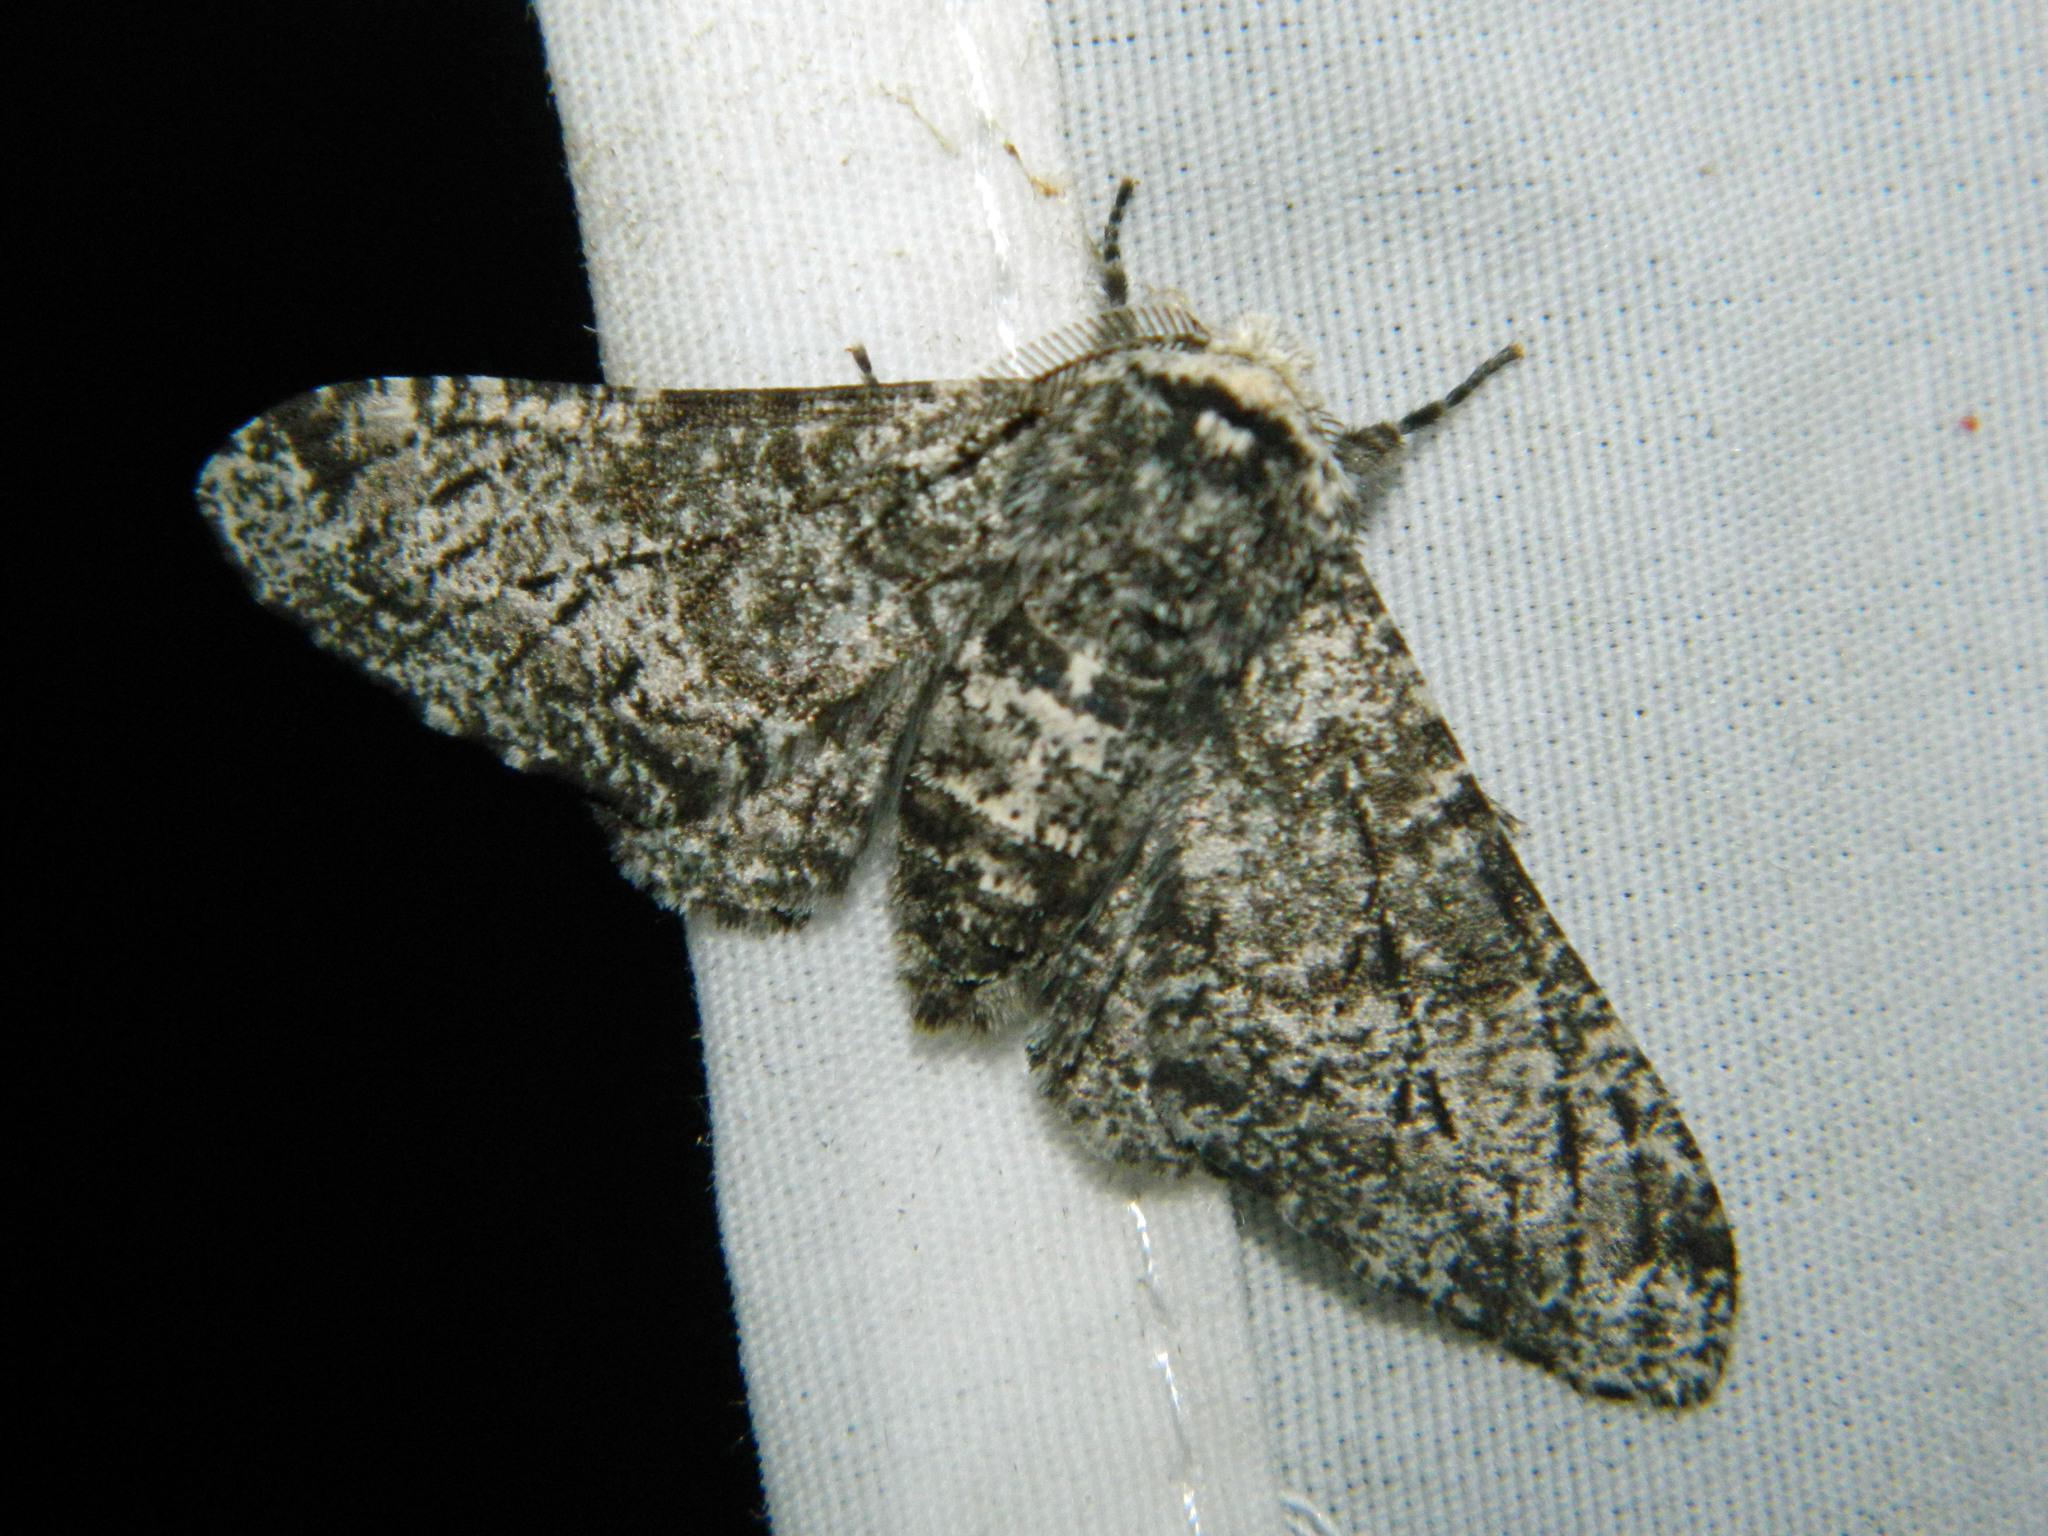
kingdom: Animalia
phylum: Arthropoda
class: Insecta
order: Lepidoptera
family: Geometridae
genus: Biston
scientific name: Biston betularia
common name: Peppered moth
